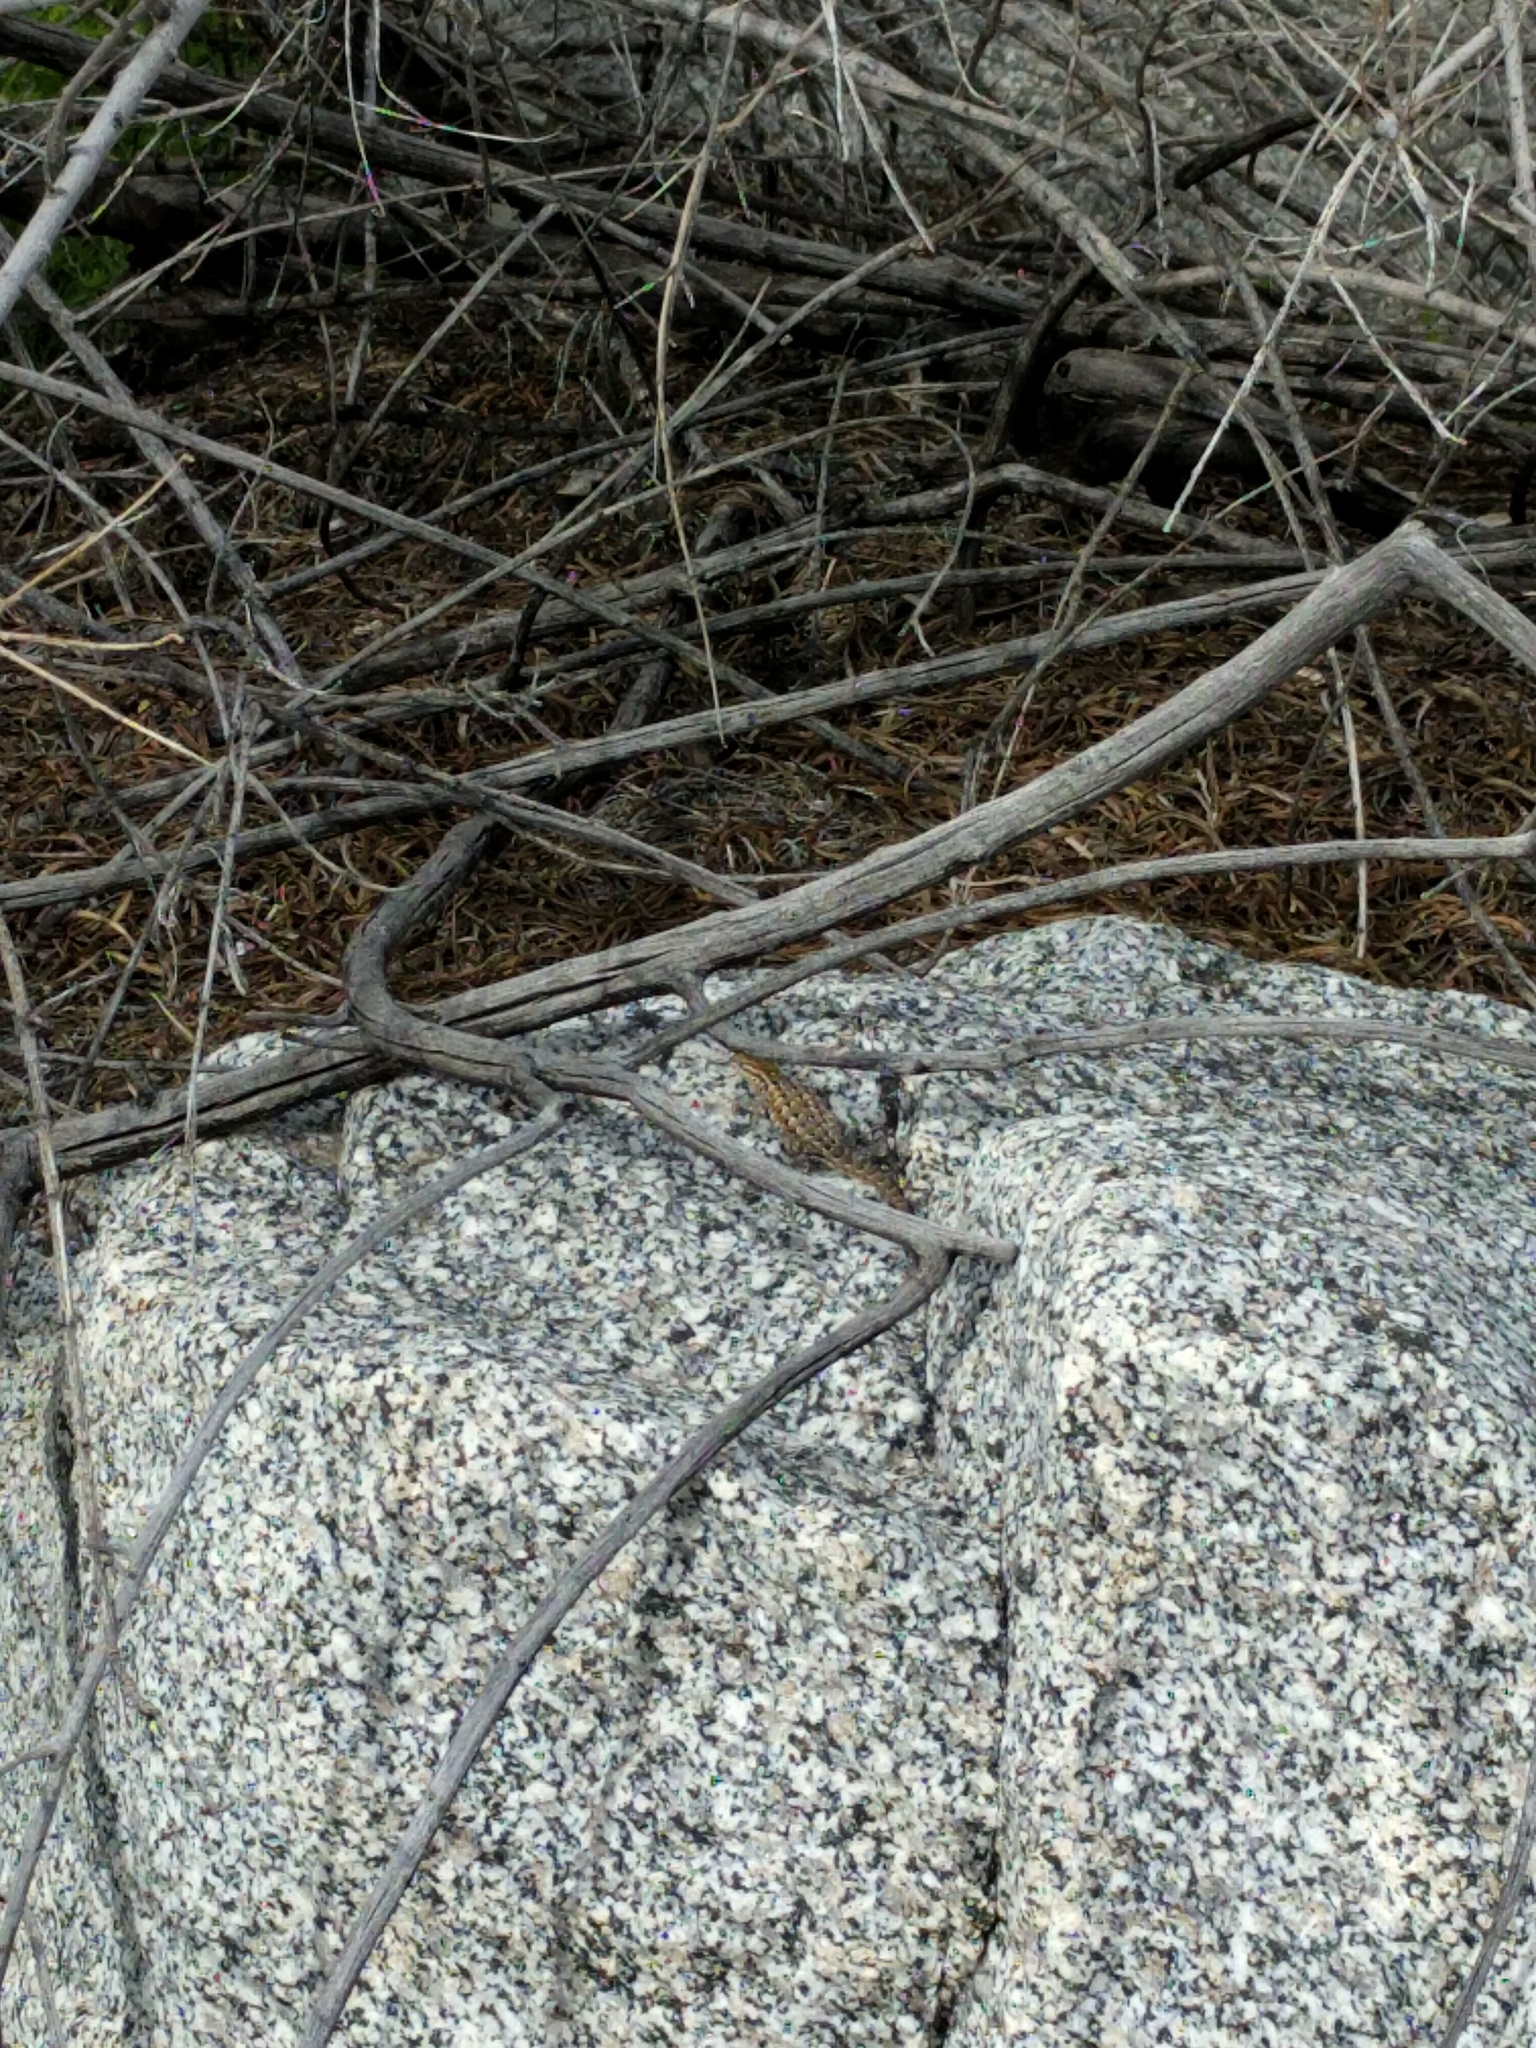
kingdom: Animalia
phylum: Chordata
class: Squamata
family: Phrynosomatidae
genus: Uta
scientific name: Uta stansburiana
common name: Side-blotched lizard
